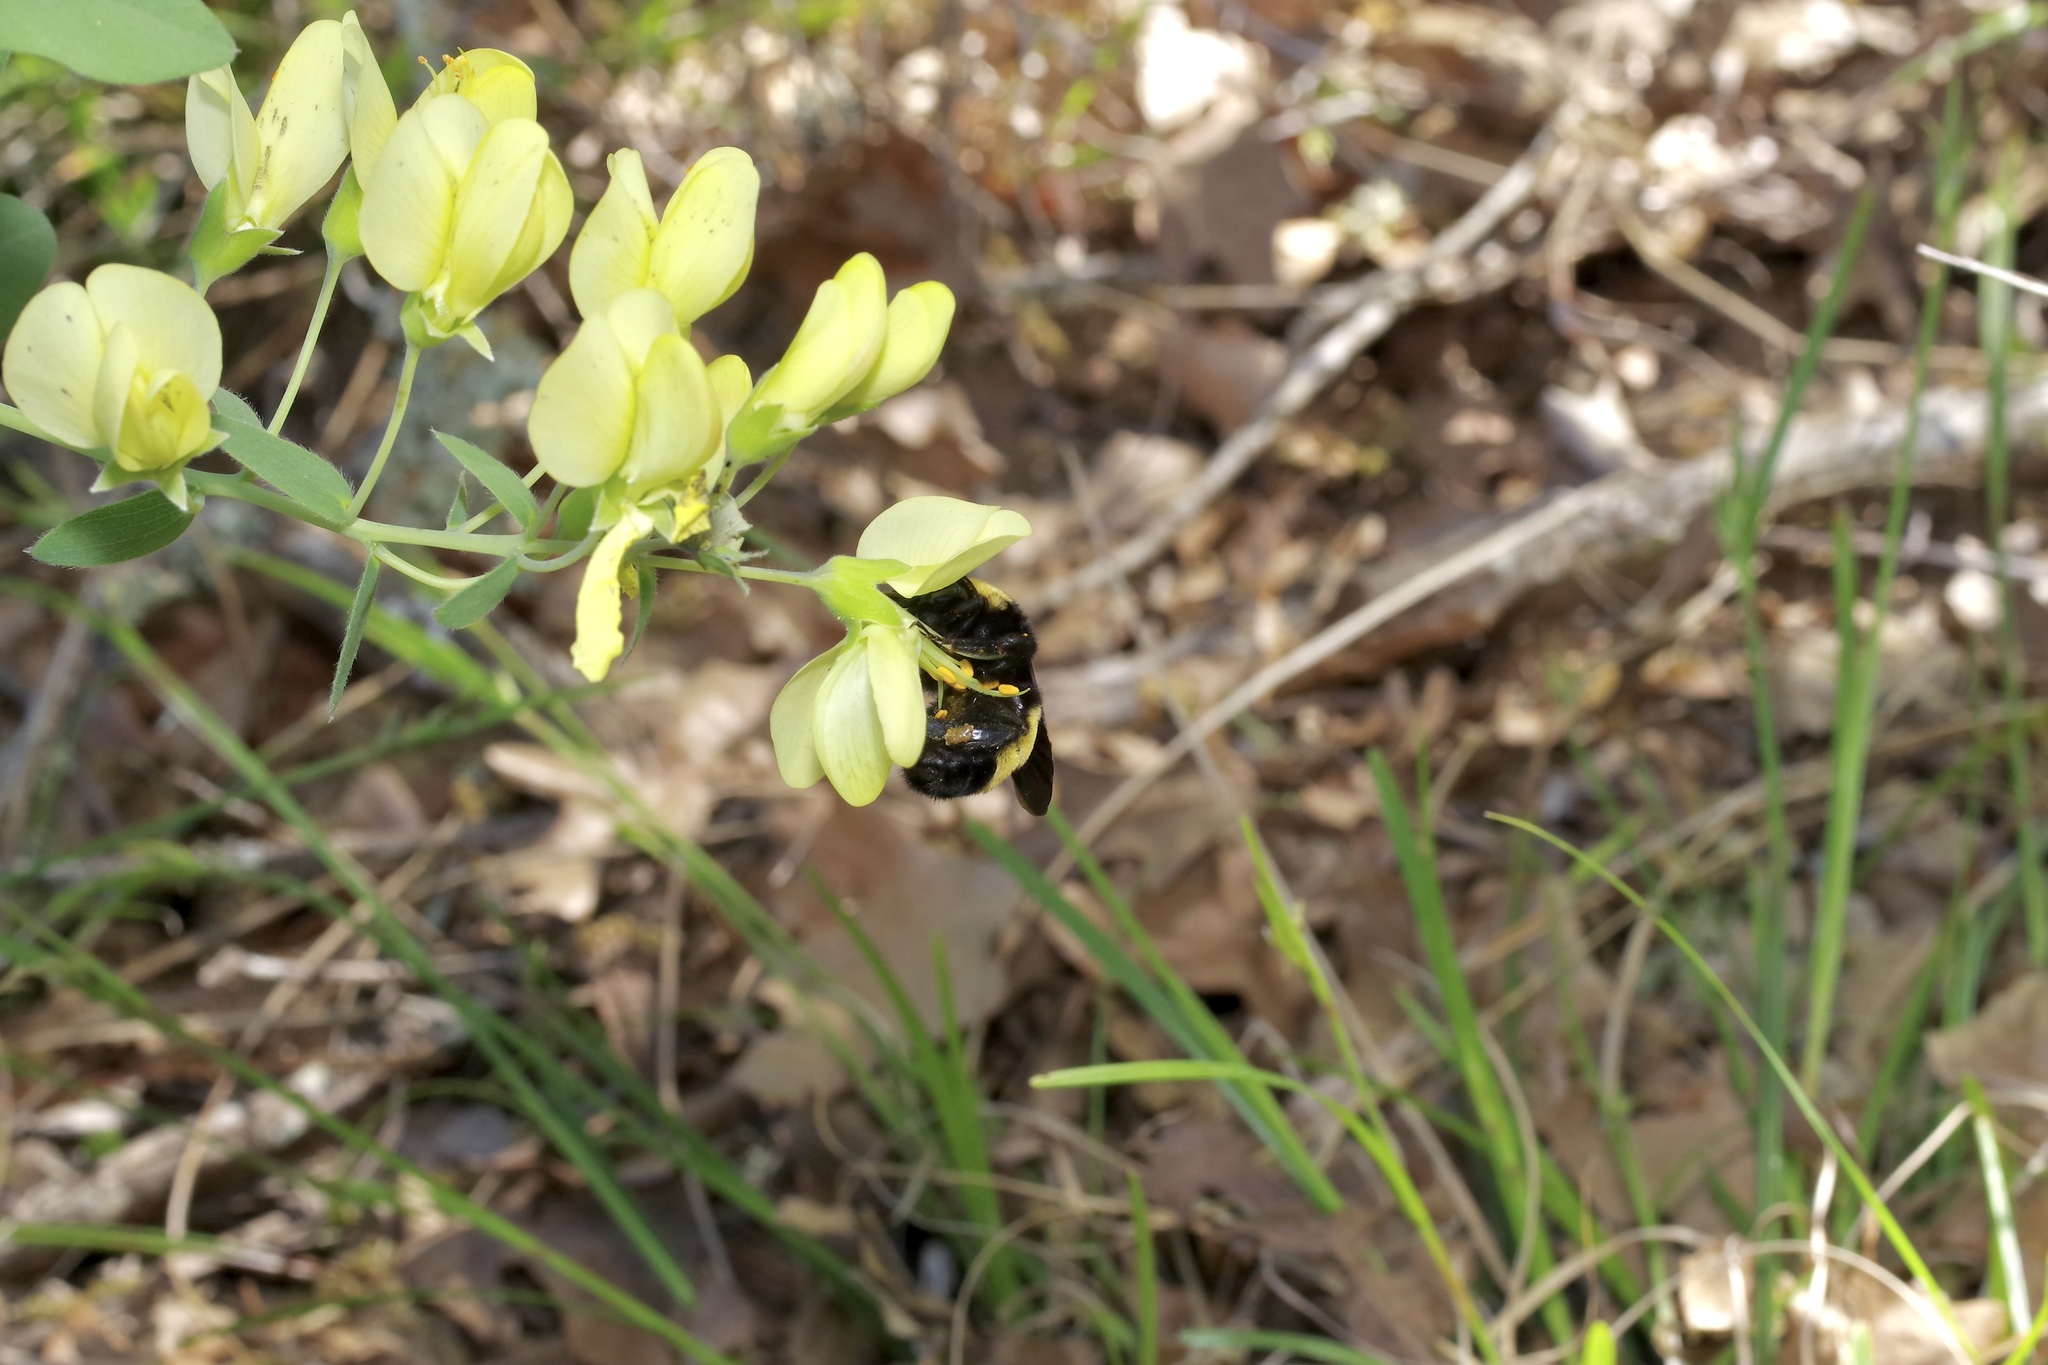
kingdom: Animalia
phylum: Arthropoda
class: Insecta
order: Hymenoptera
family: Apidae
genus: Bombus
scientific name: Bombus pensylvanicus
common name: Bumble bee
